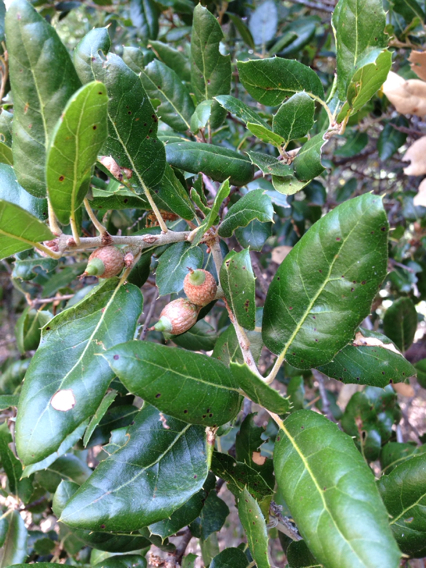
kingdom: Plantae
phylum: Tracheophyta
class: Magnoliopsida
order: Fagales
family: Fagaceae
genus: Quercus
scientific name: Quercus agrifolia
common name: California live oak
